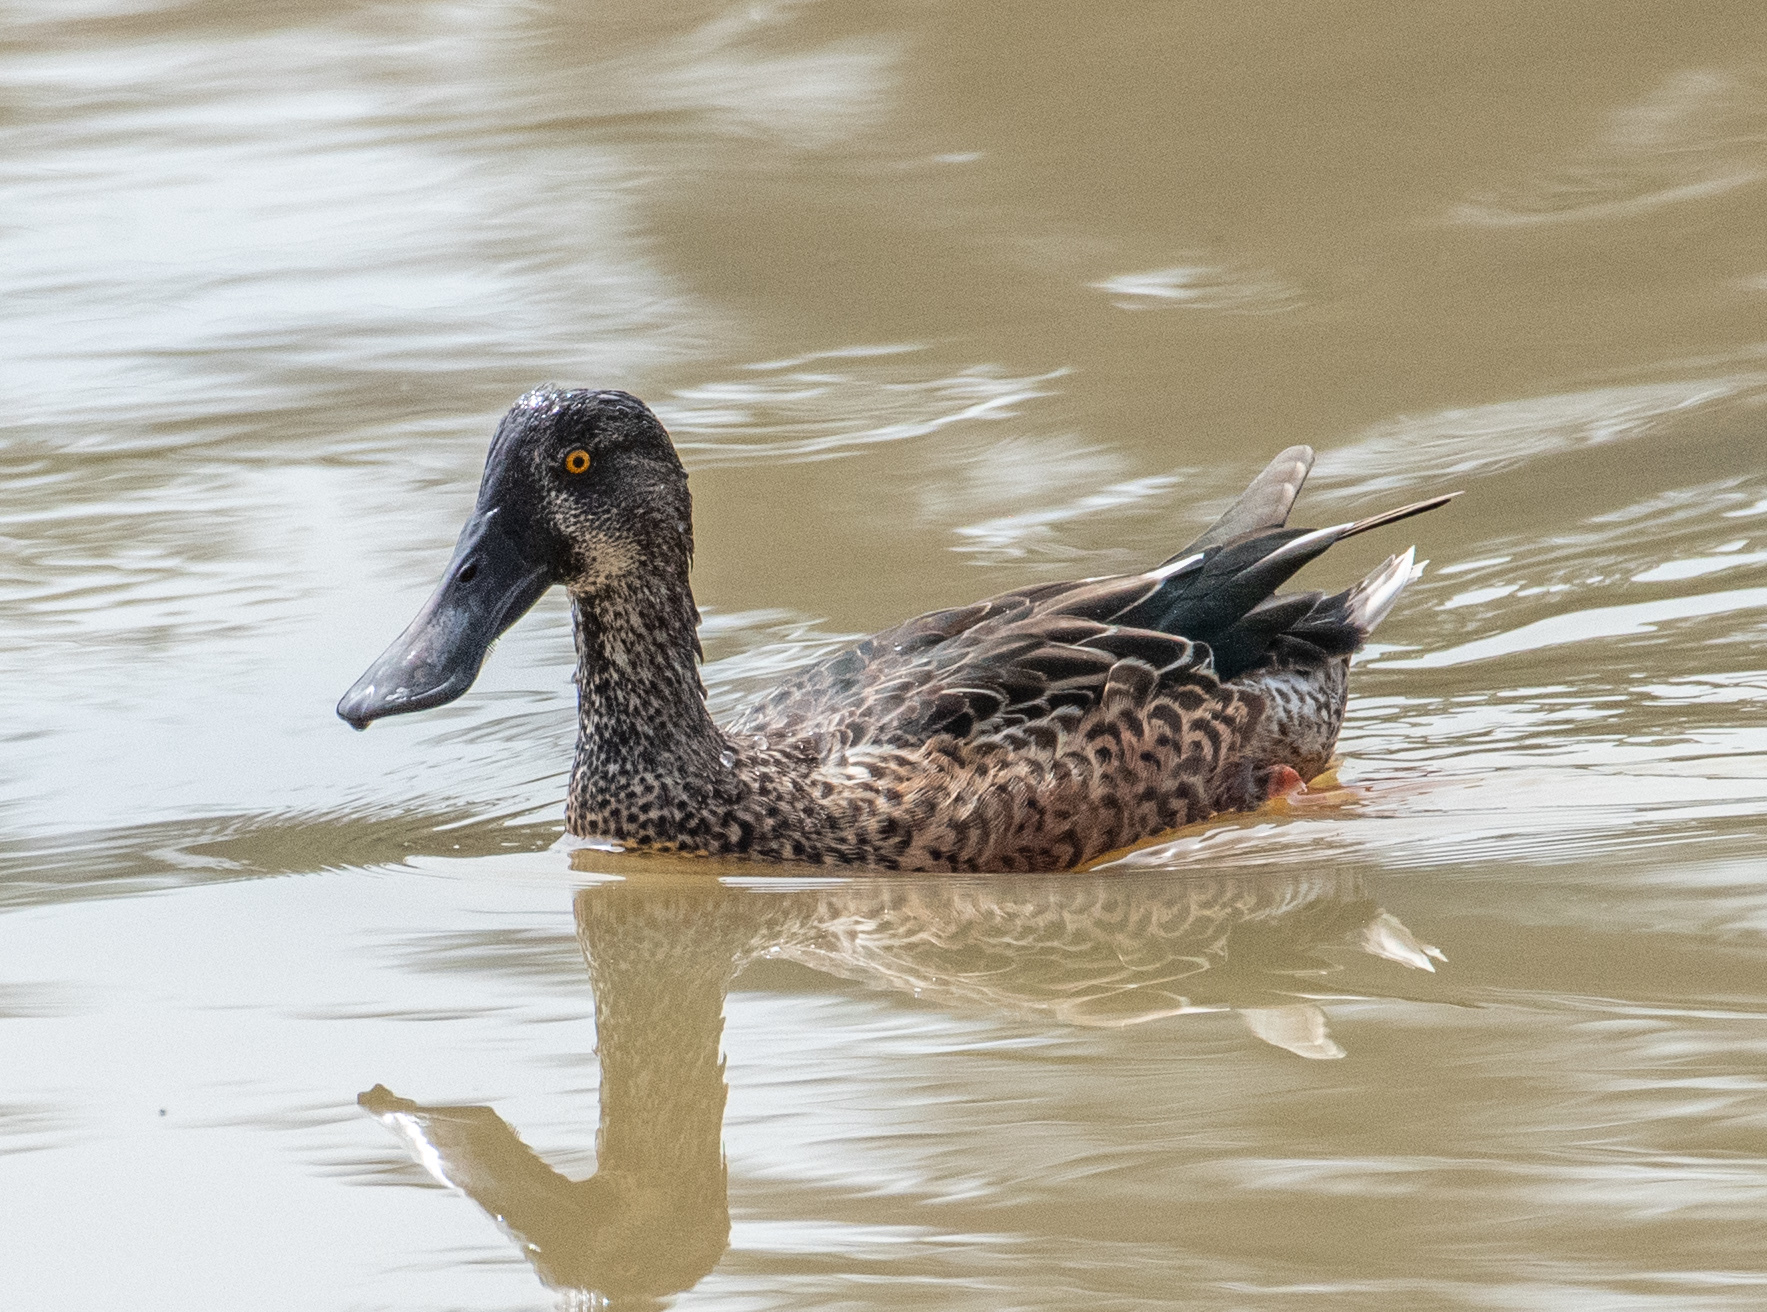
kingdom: Animalia
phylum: Chordata
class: Aves
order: Anseriformes
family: Anatidae
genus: Spatula
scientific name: Spatula clypeata
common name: Northern shoveler
